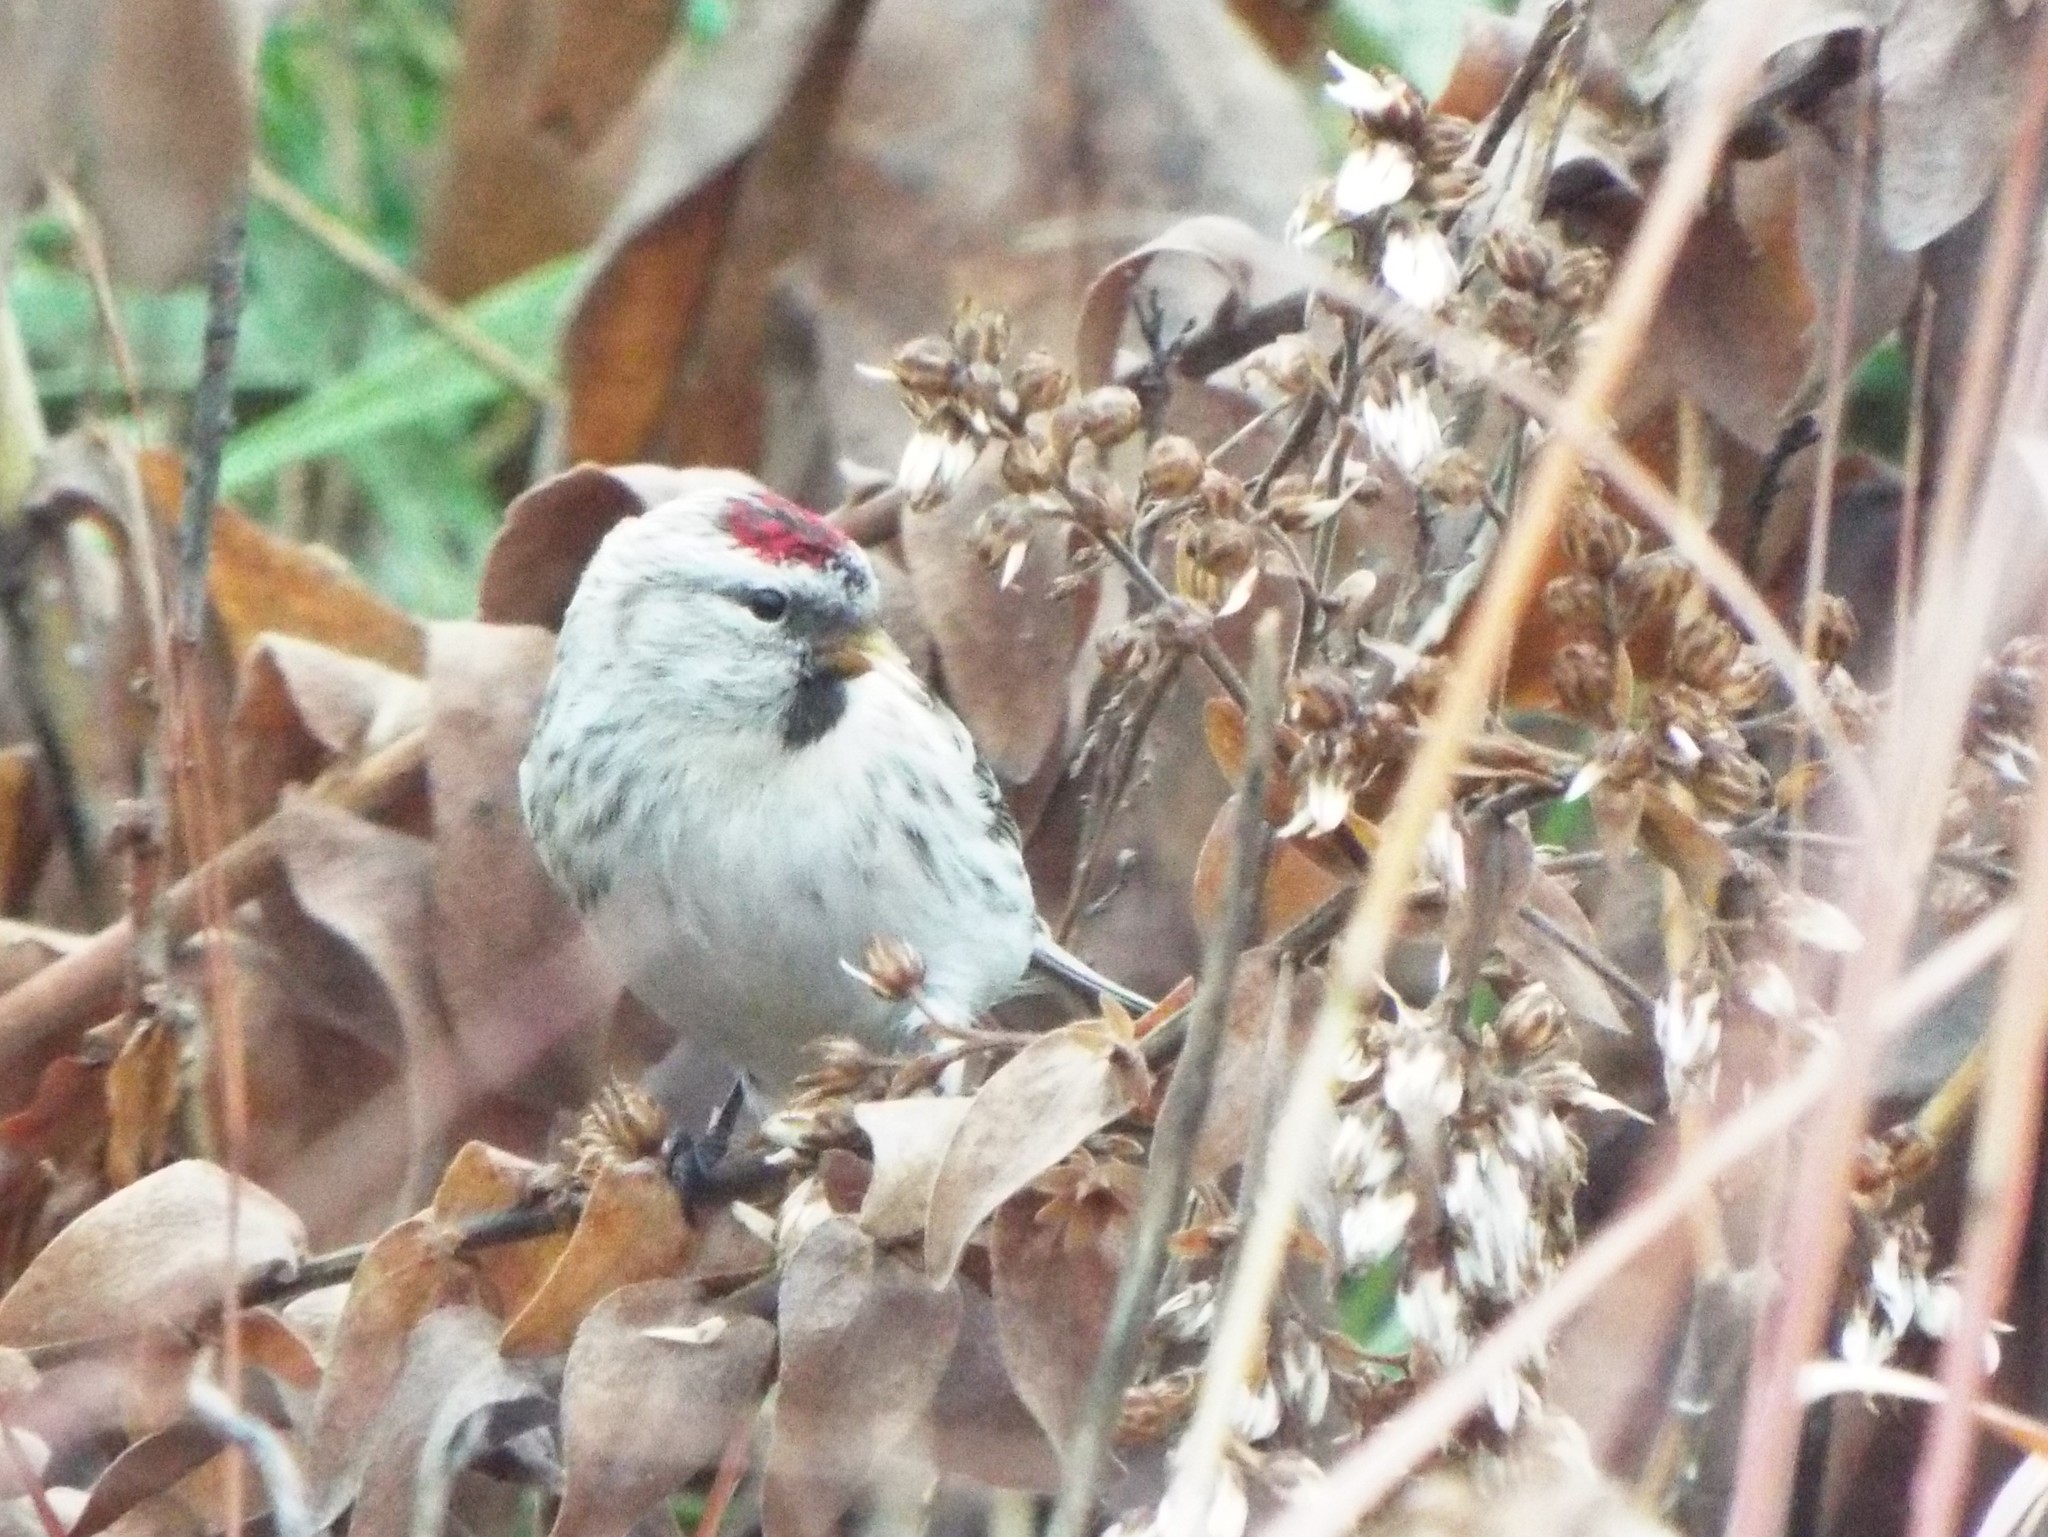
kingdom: Animalia
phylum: Chordata
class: Aves
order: Passeriformes
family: Fringillidae
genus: Acanthis
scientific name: Acanthis hornemanni
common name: Arctic redpoll
